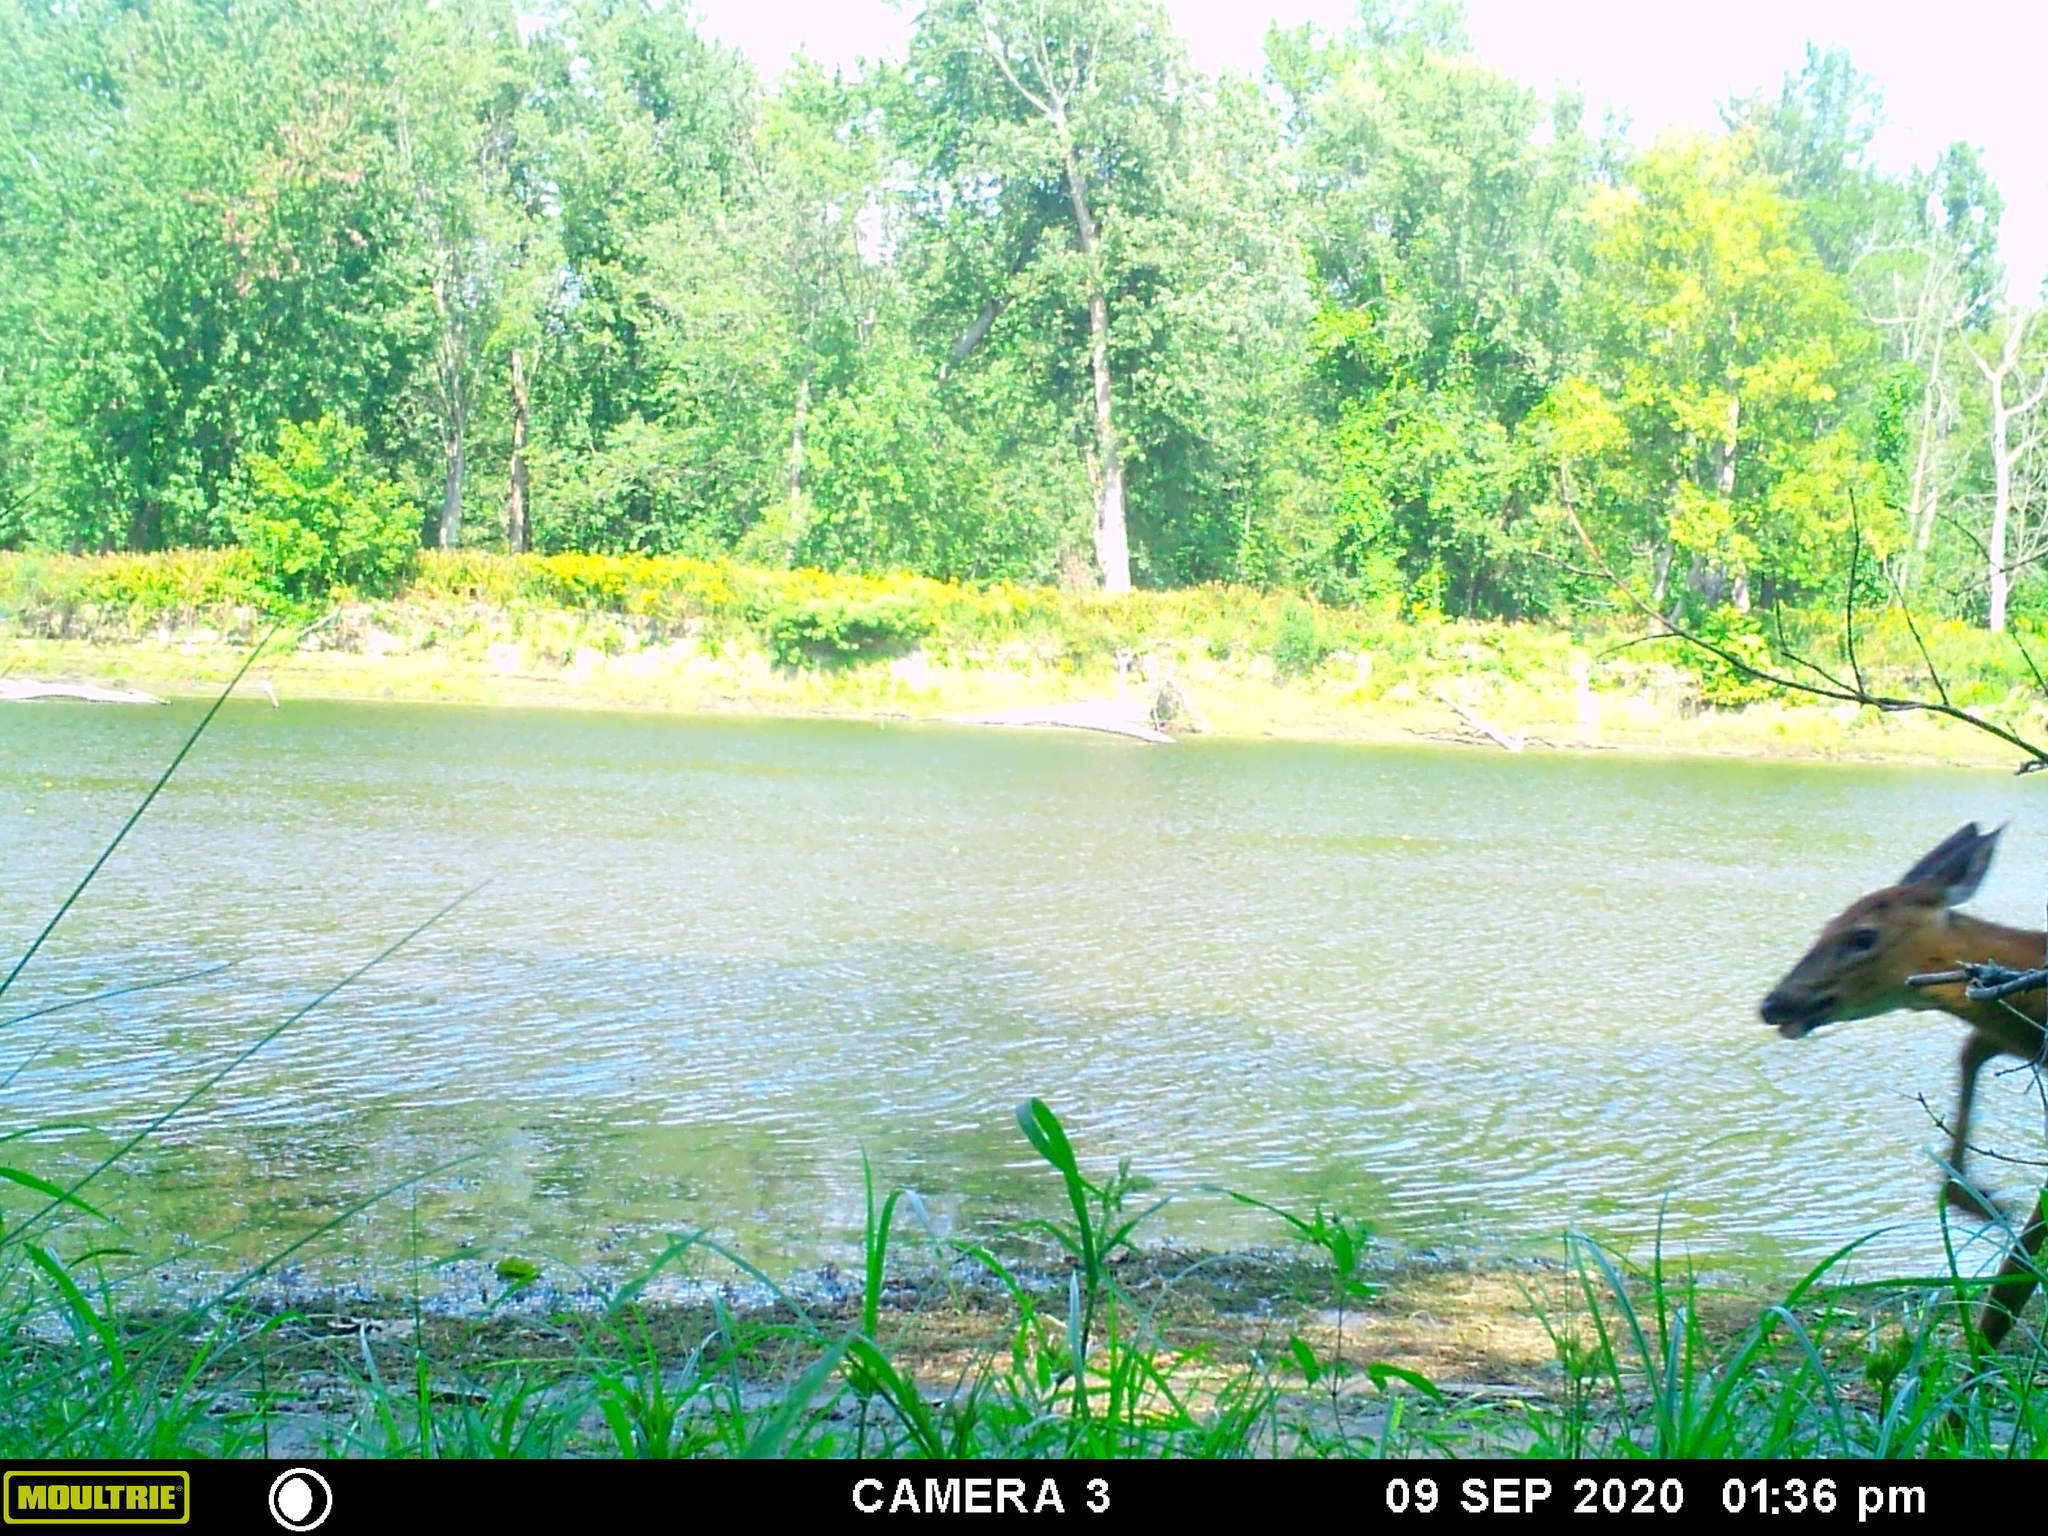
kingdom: Animalia
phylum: Chordata
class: Mammalia
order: Artiodactyla
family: Cervidae
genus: Odocoileus
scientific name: Odocoileus virginianus
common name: White-tailed deer
